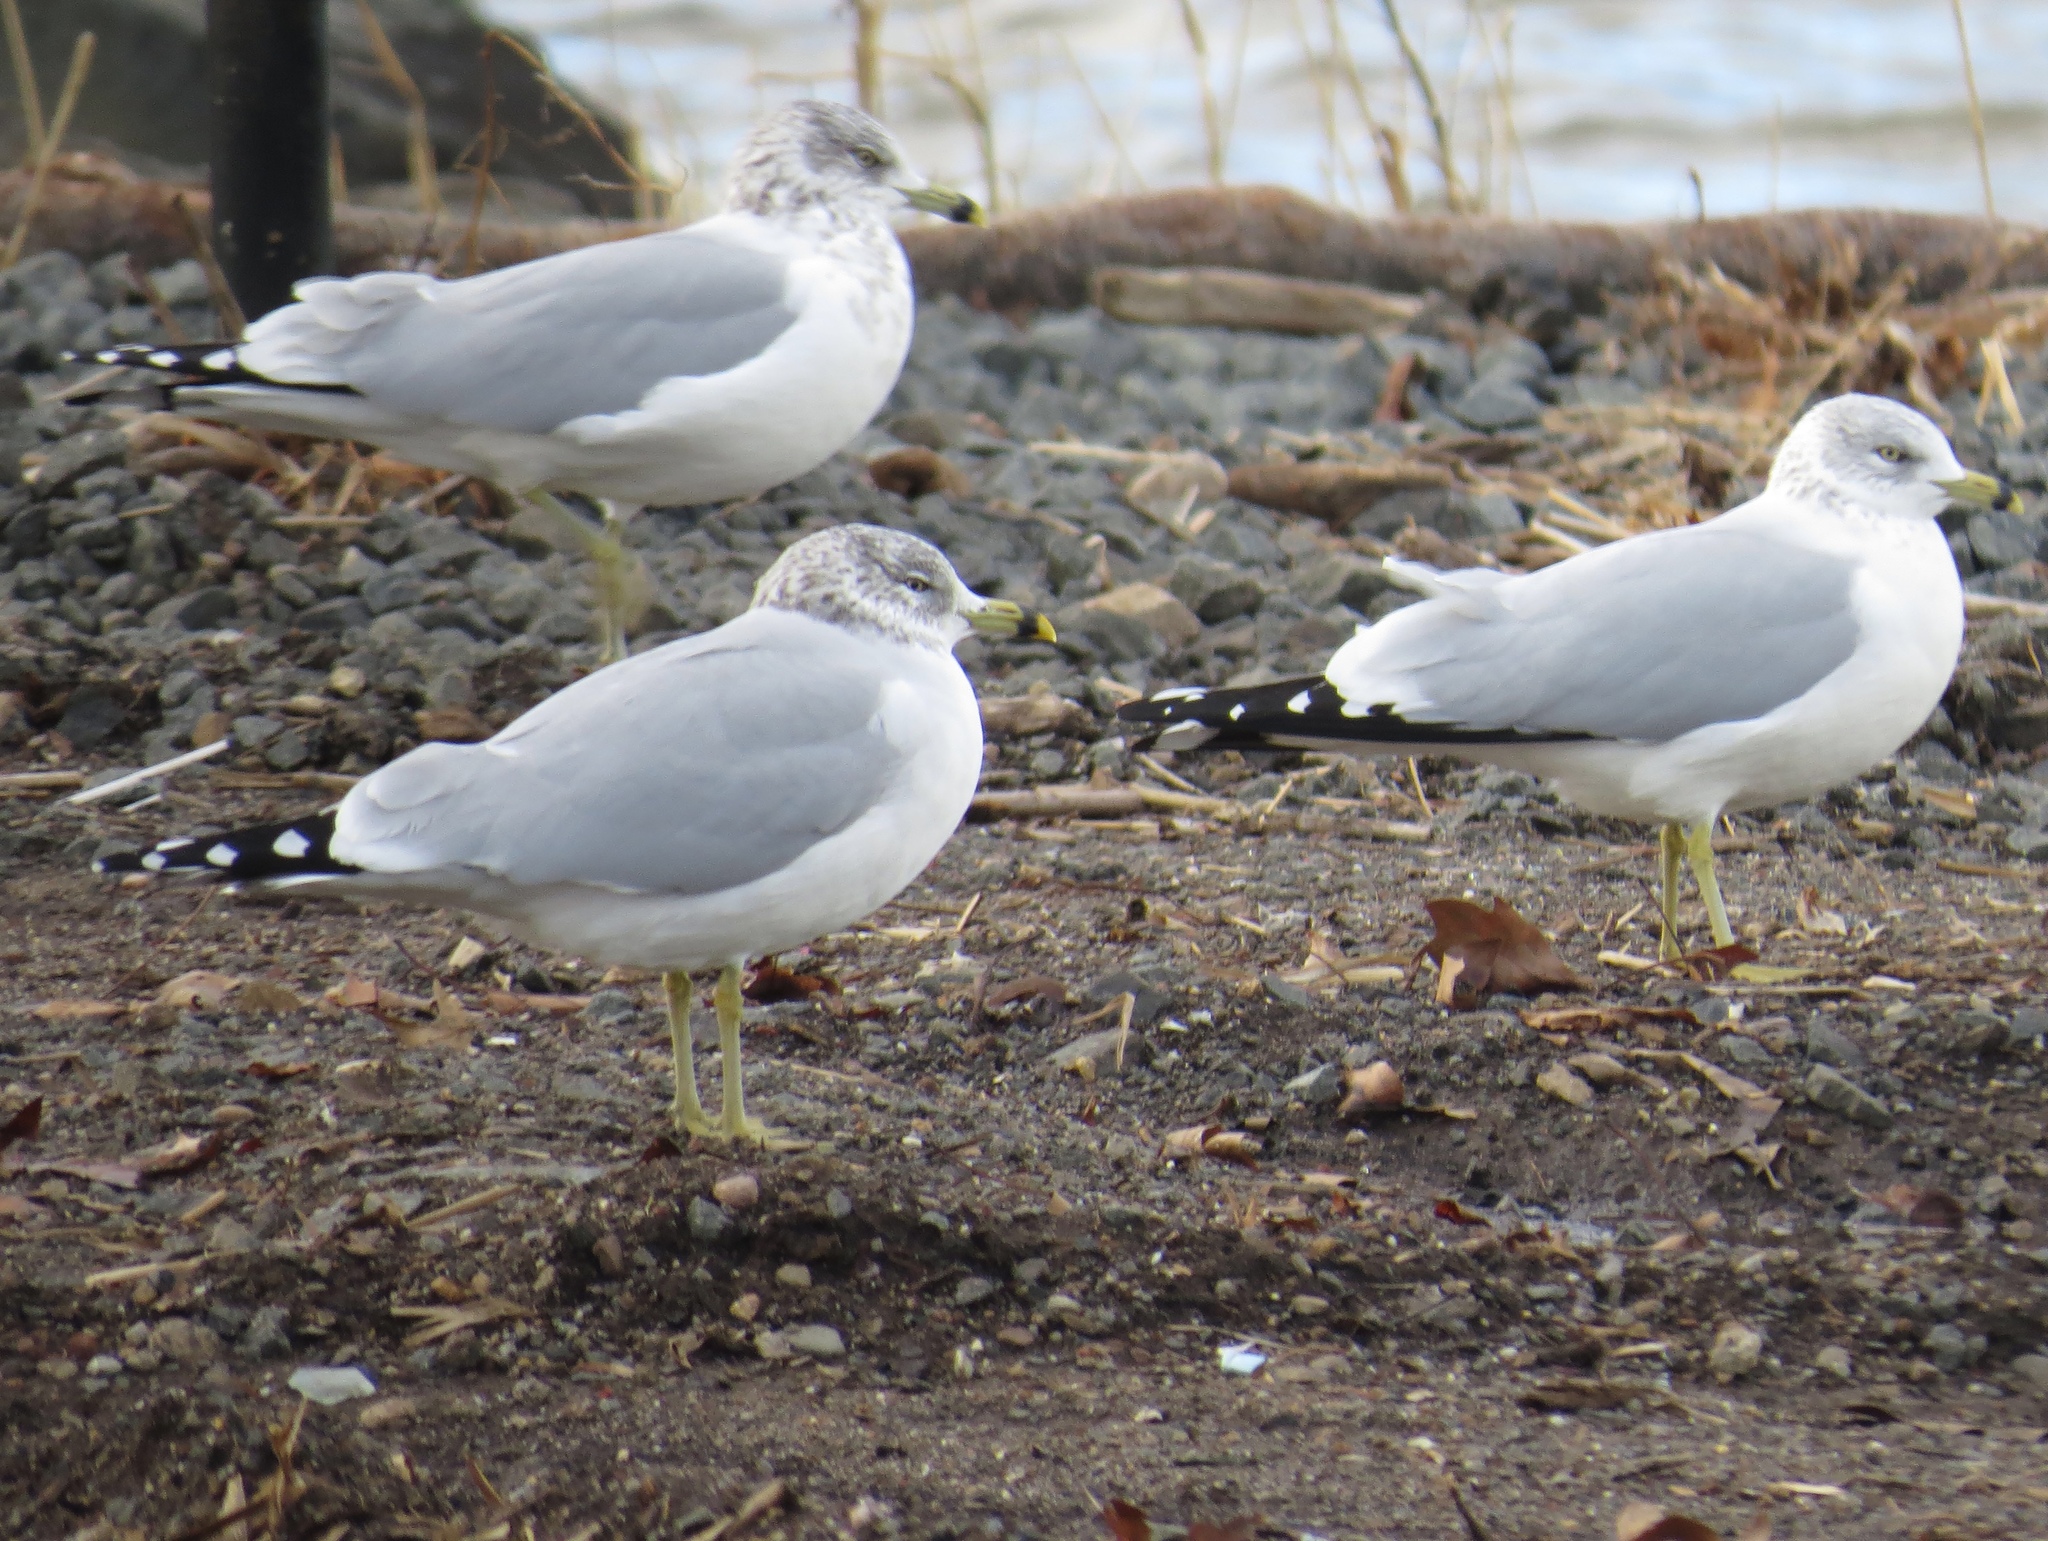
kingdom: Animalia
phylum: Chordata
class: Aves
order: Charadriiformes
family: Laridae
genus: Larus
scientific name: Larus delawarensis
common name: Ring-billed gull
